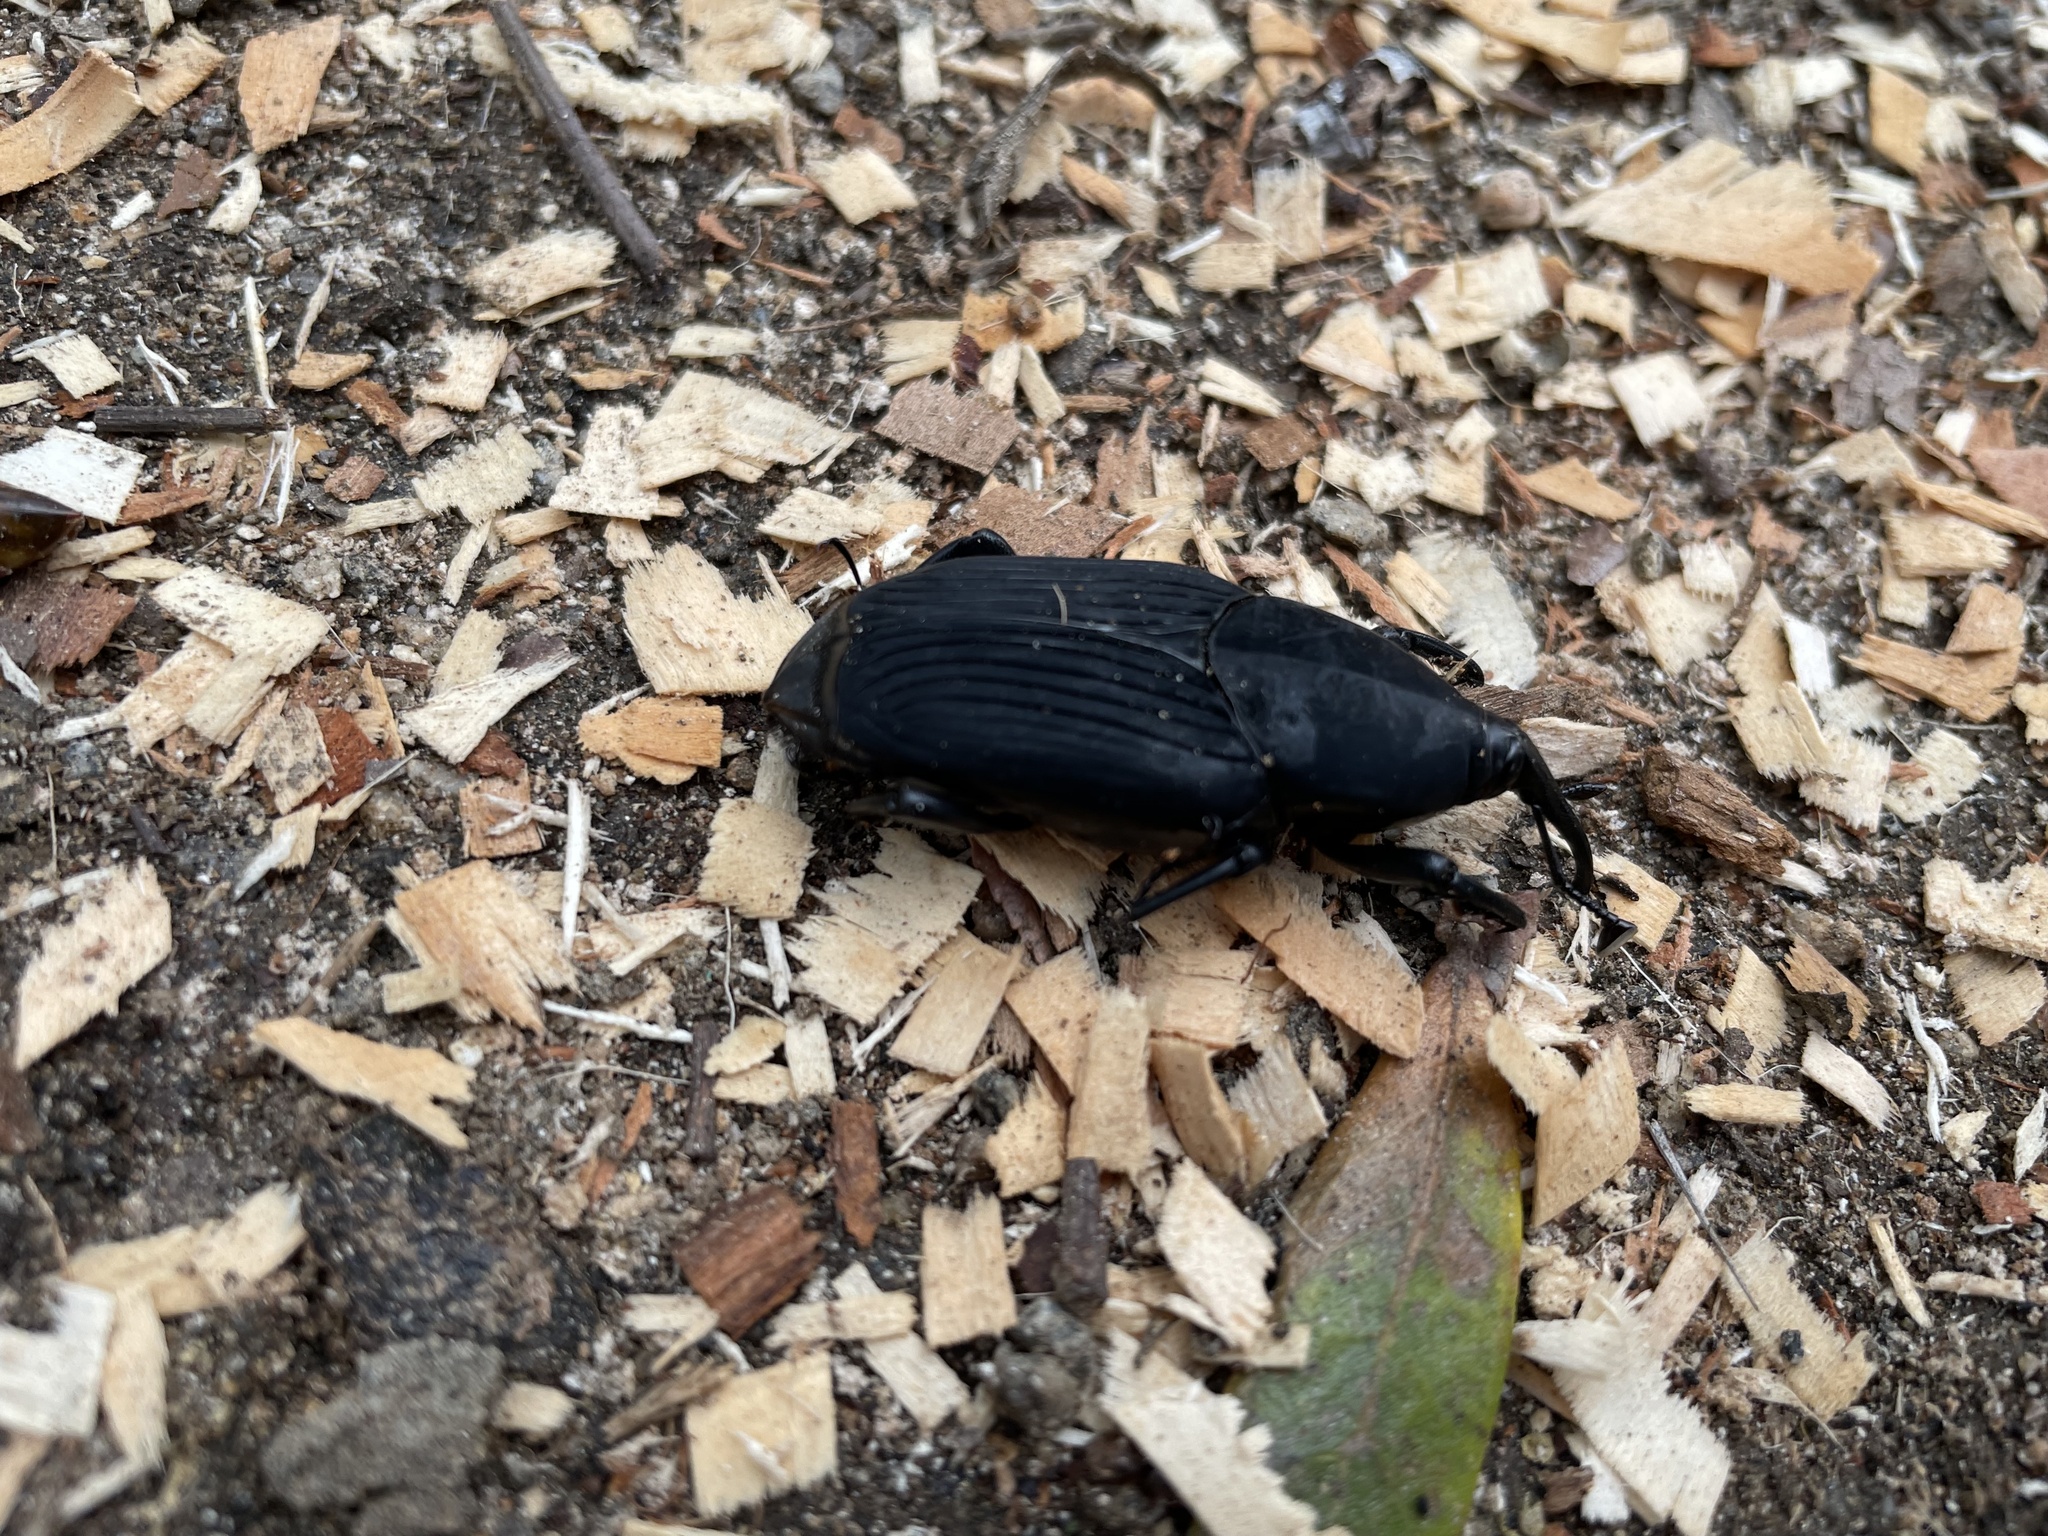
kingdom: Animalia
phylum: Arthropoda
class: Insecta
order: Coleoptera
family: Dryophthoridae
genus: Rhynchophorus
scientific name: Rhynchophorus palmarum
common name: Palm weevil
